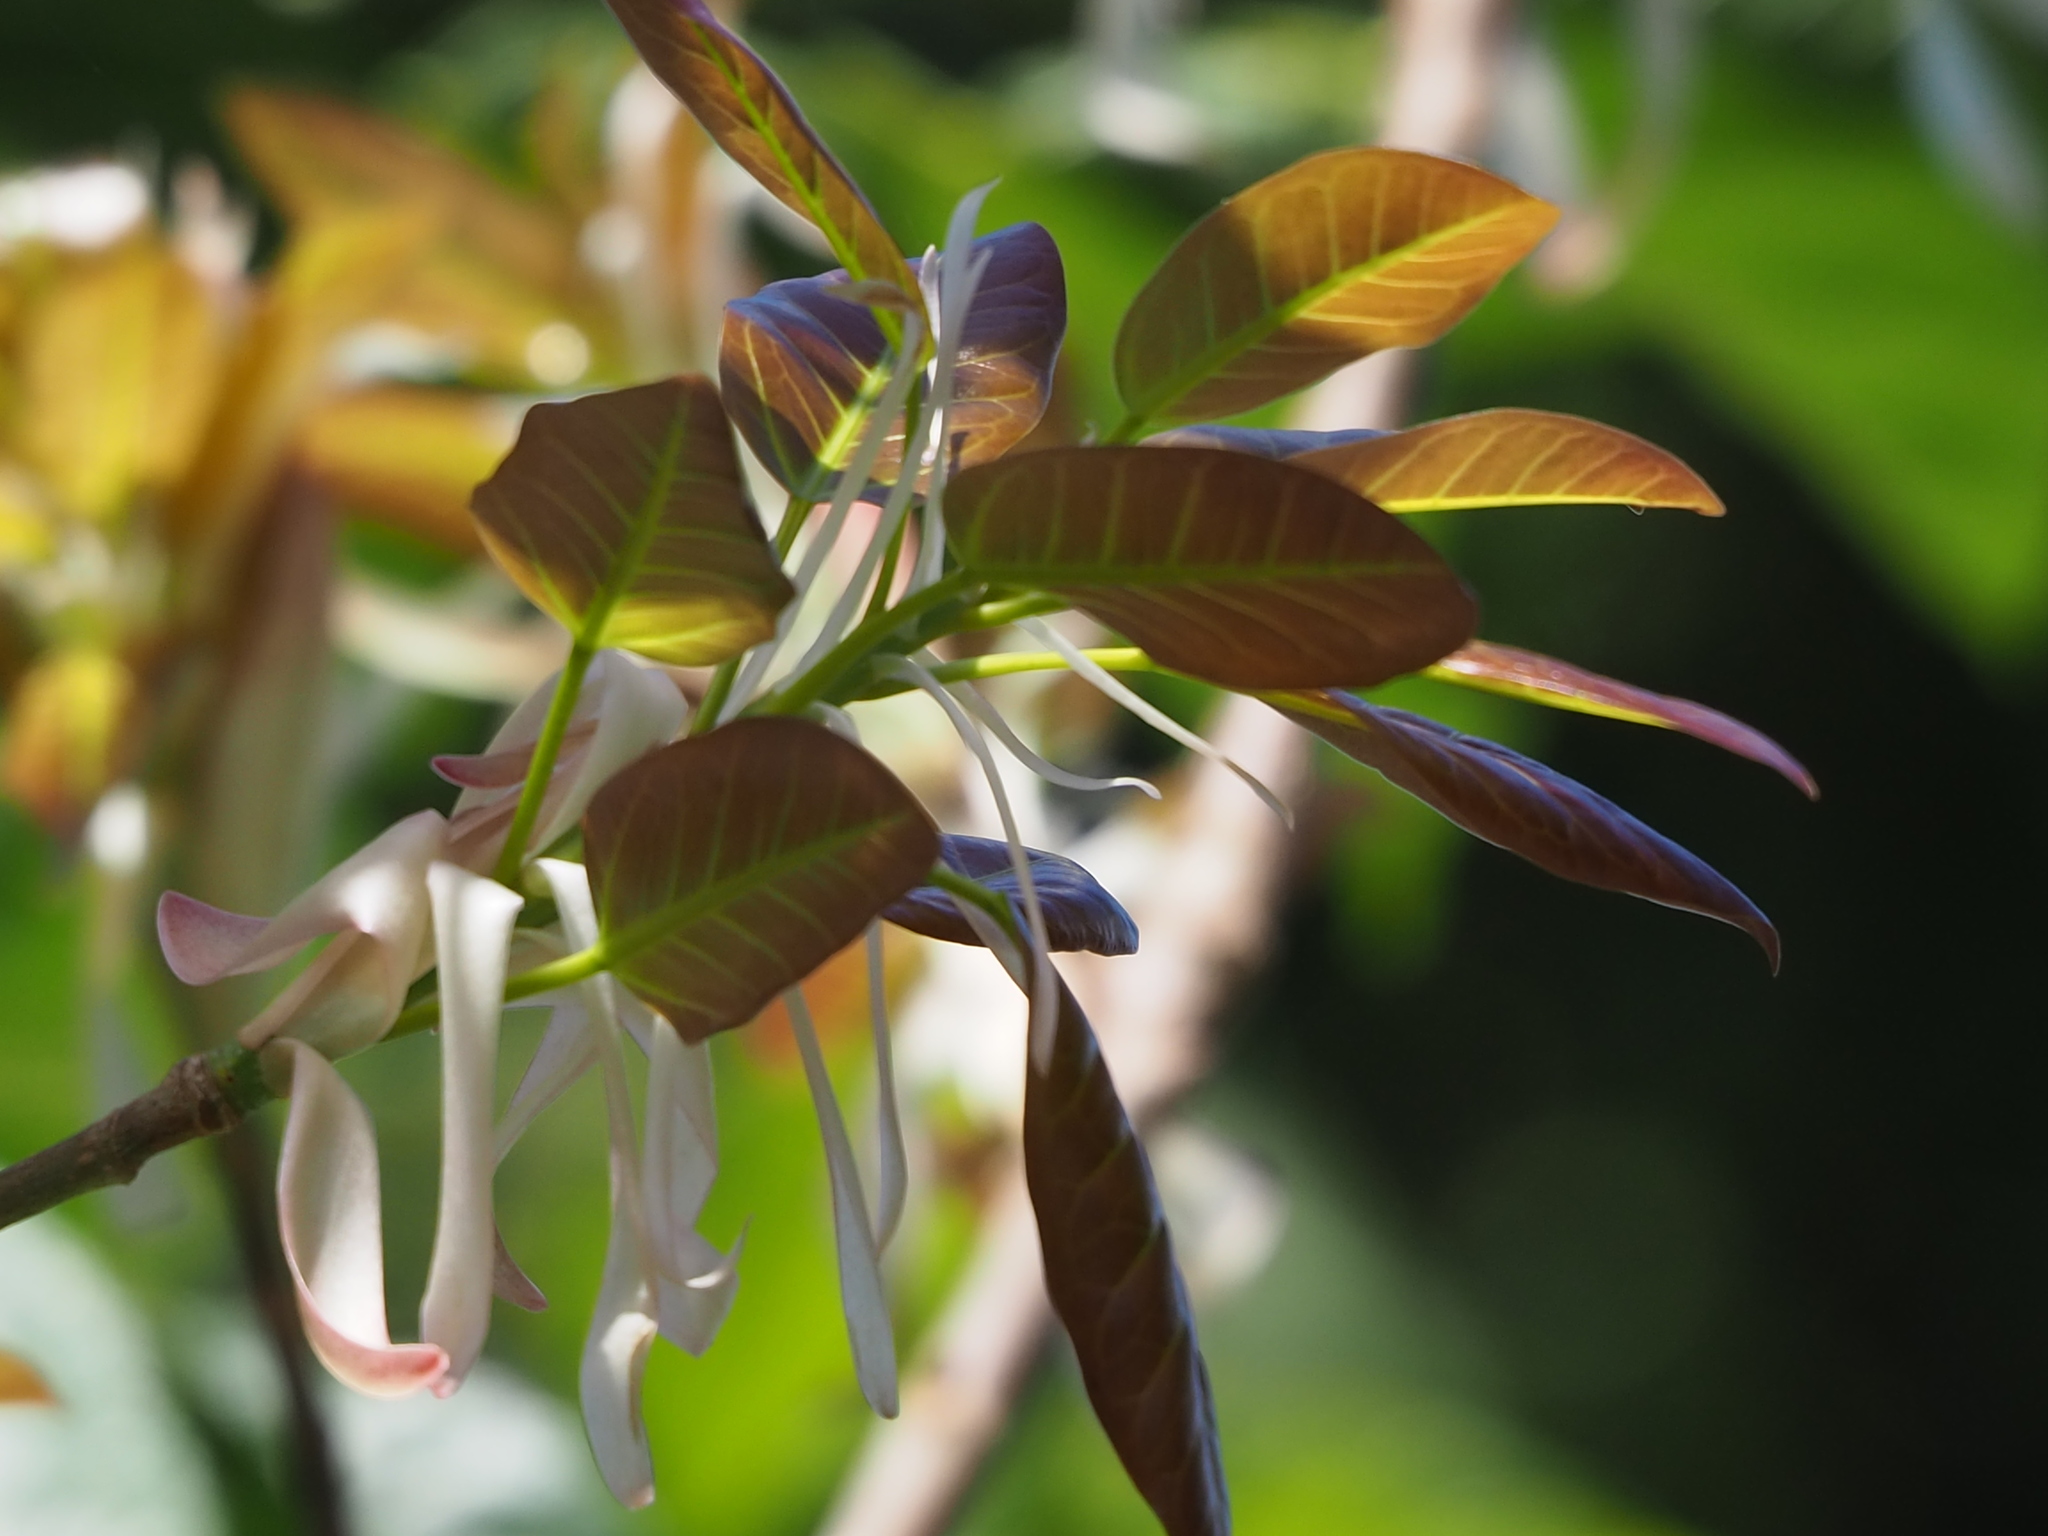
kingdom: Plantae
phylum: Tracheophyta
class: Magnoliopsida
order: Rosales
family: Moraceae
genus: Ficus
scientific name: Ficus subpisocarpa
